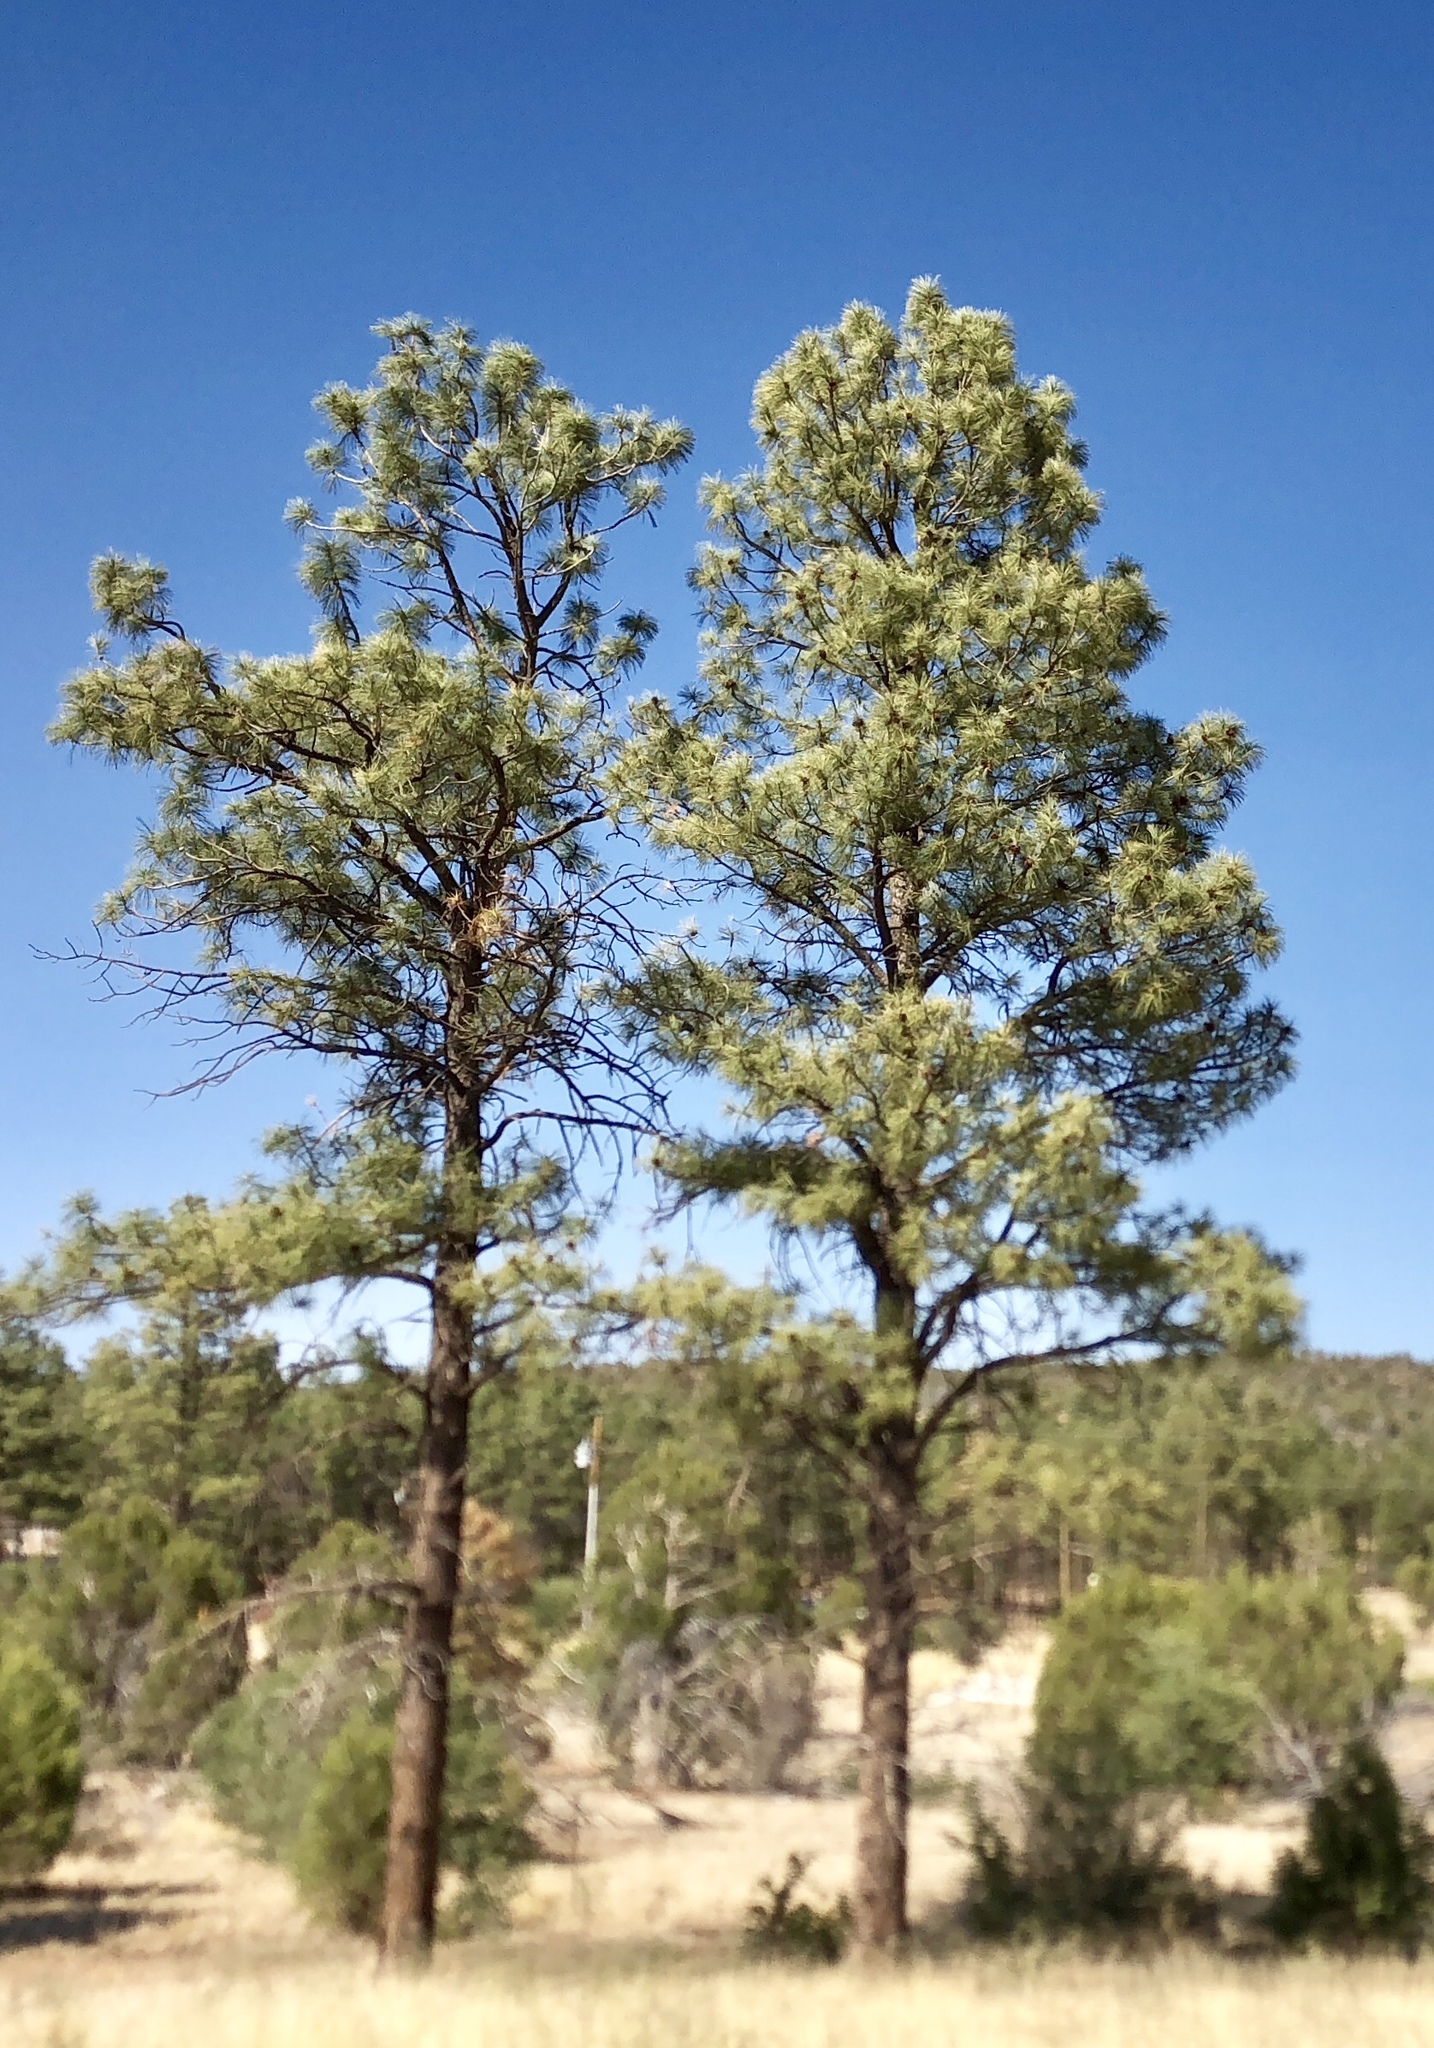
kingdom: Plantae
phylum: Tracheophyta
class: Pinopsida
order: Pinales
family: Pinaceae
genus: Pinus
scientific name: Pinus ponderosa
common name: Western yellow-pine
